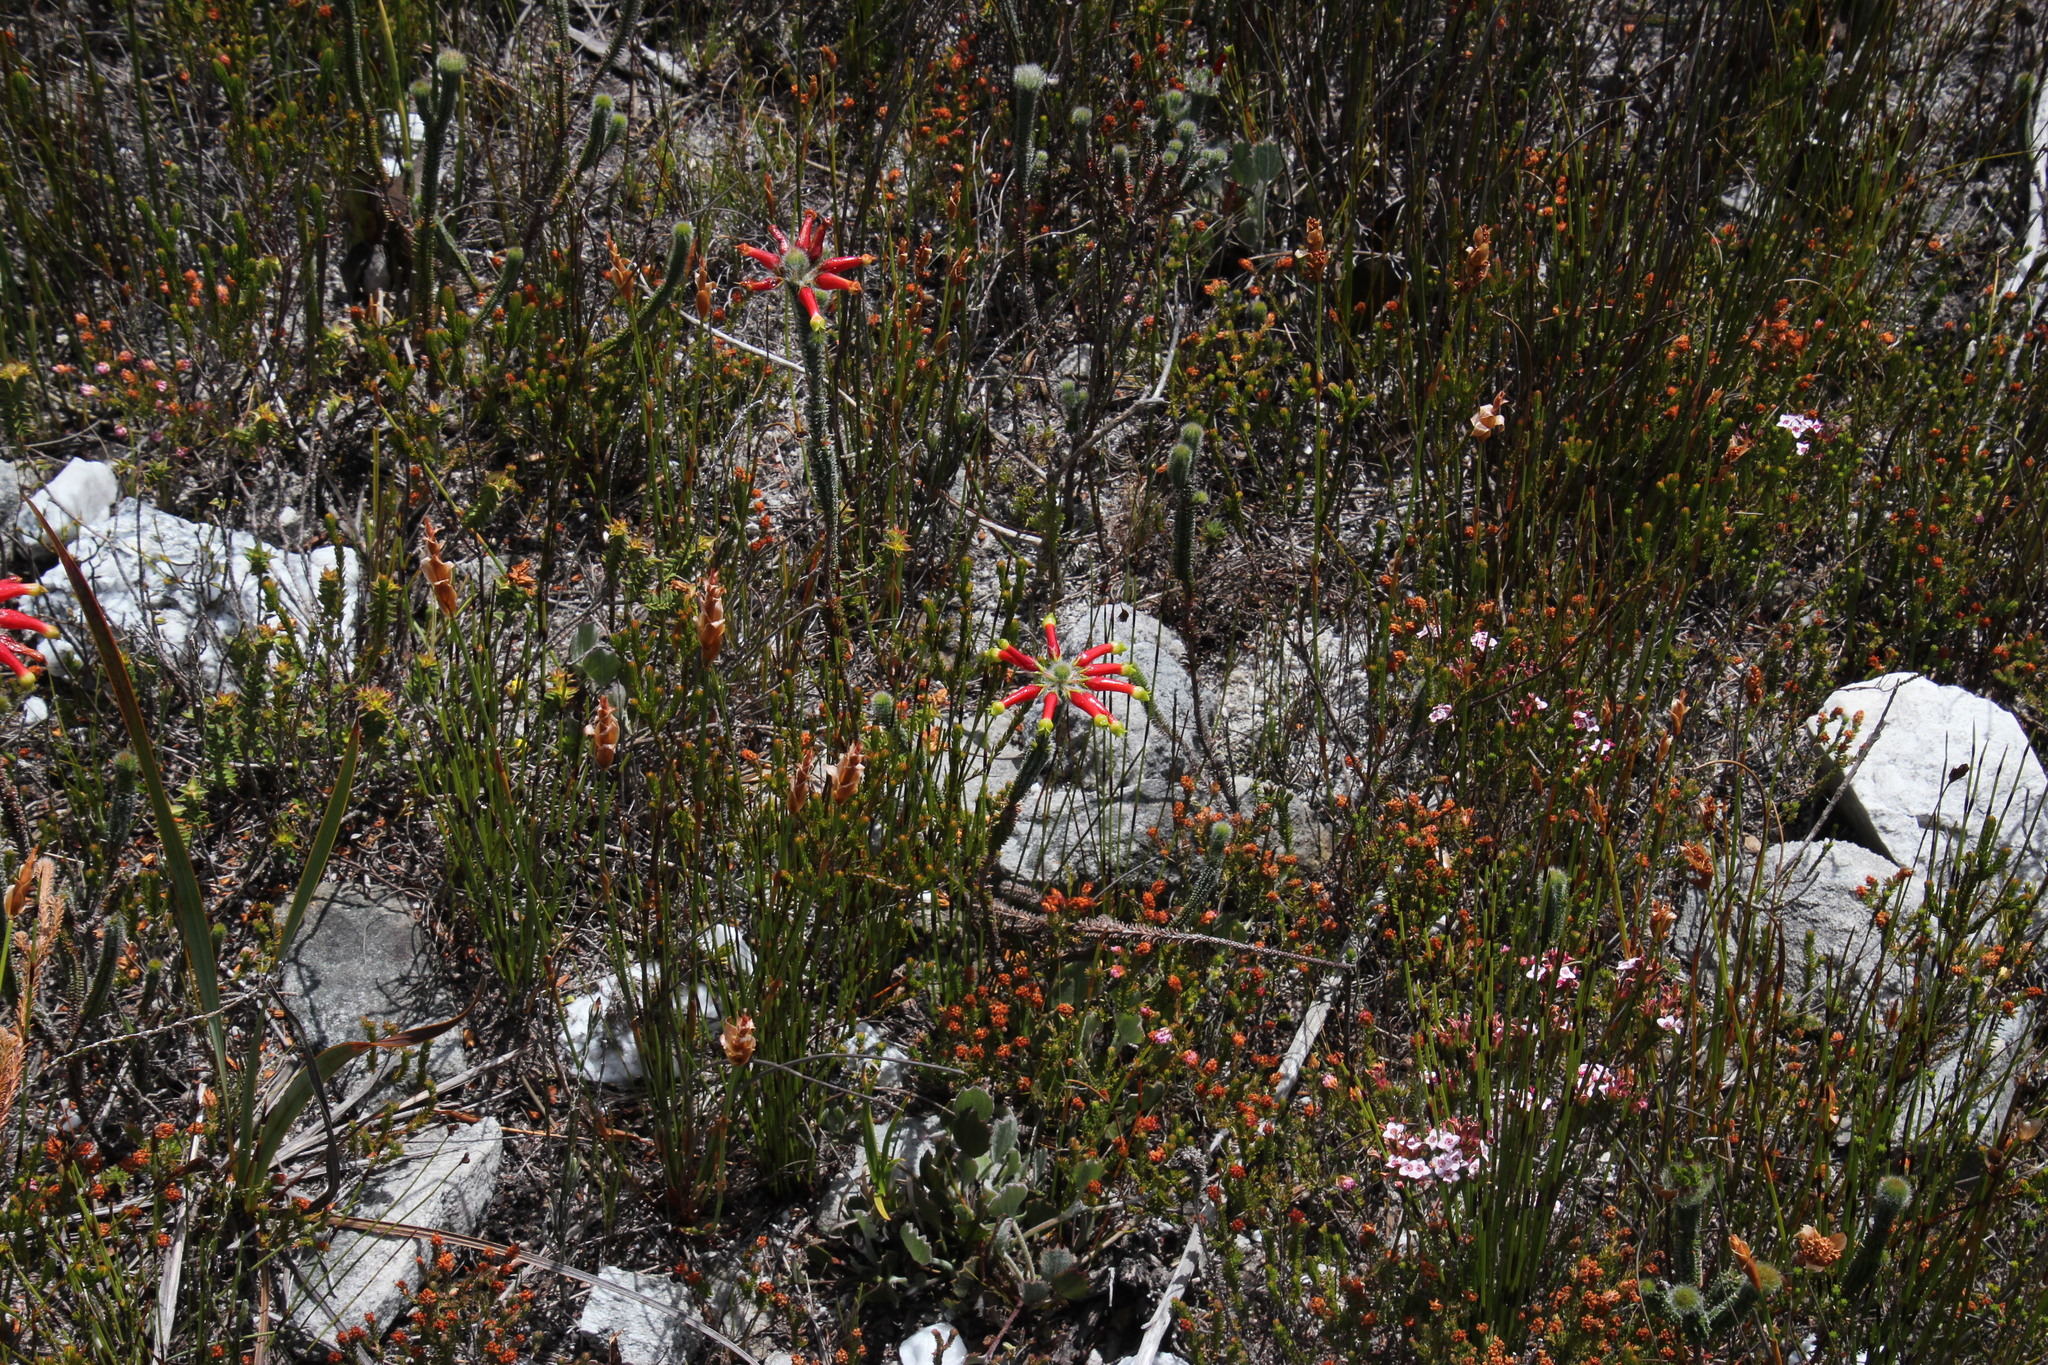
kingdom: Plantae
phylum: Tracheophyta
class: Magnoliopsida
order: Ericales
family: Ericaceae
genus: Erica
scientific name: Erica massonii
